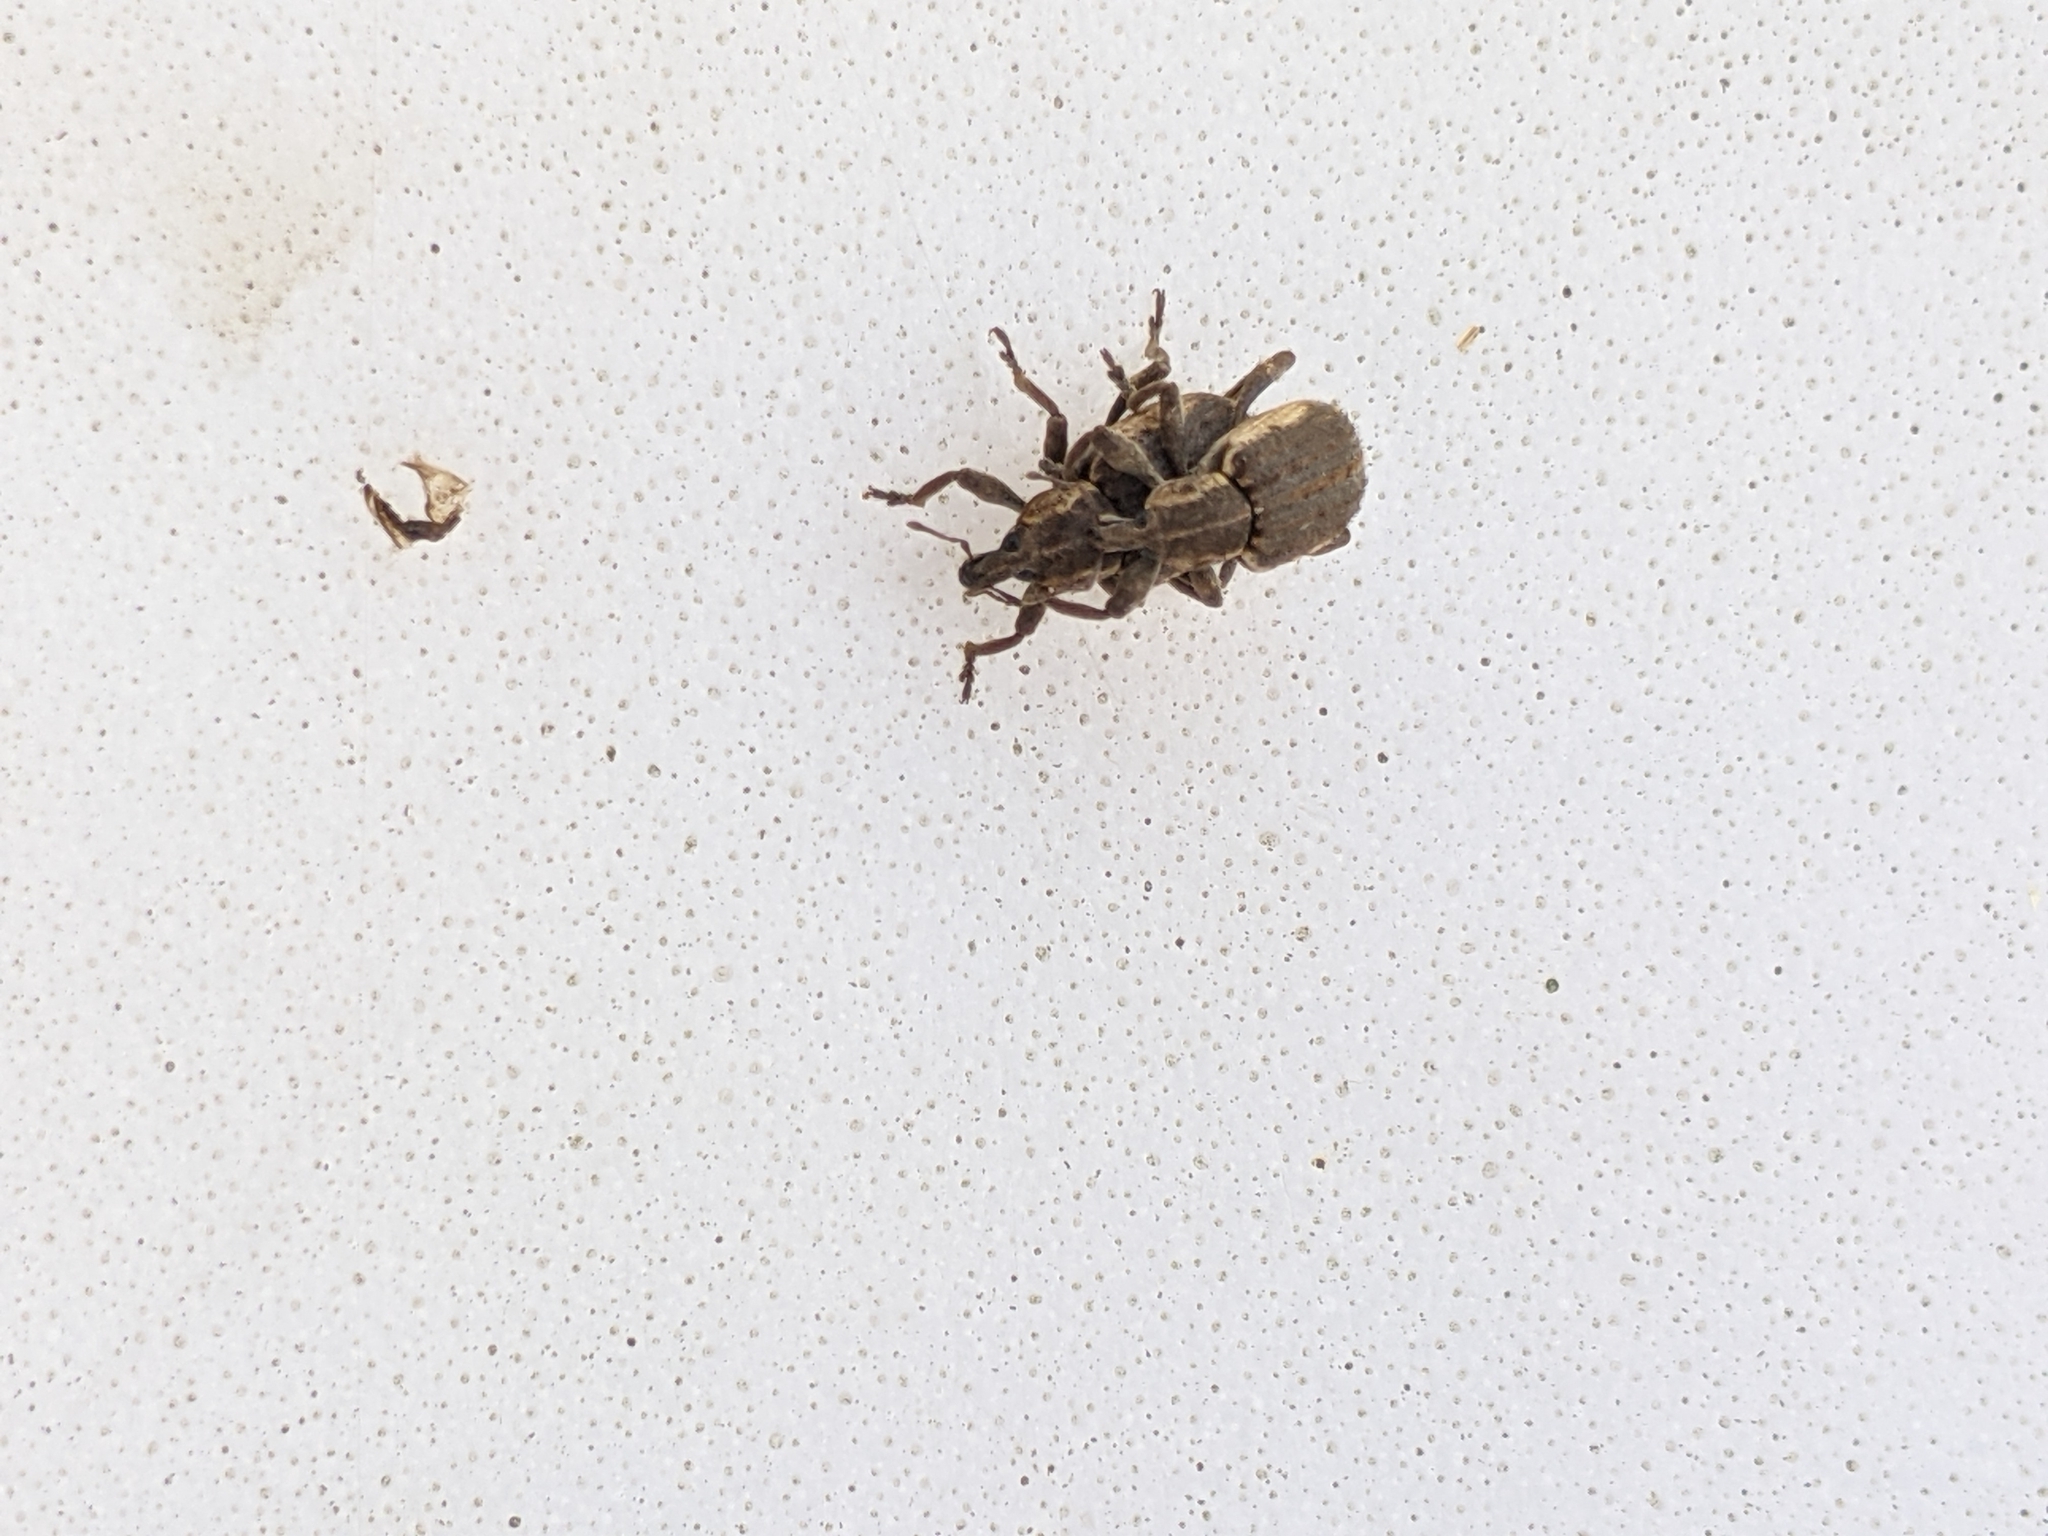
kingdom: Animalia
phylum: Arthropoda
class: Insecta
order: Coleoptera
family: Curculionidae
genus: Brachypera
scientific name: Brachypera zoilus
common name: Clover leaf weevil
